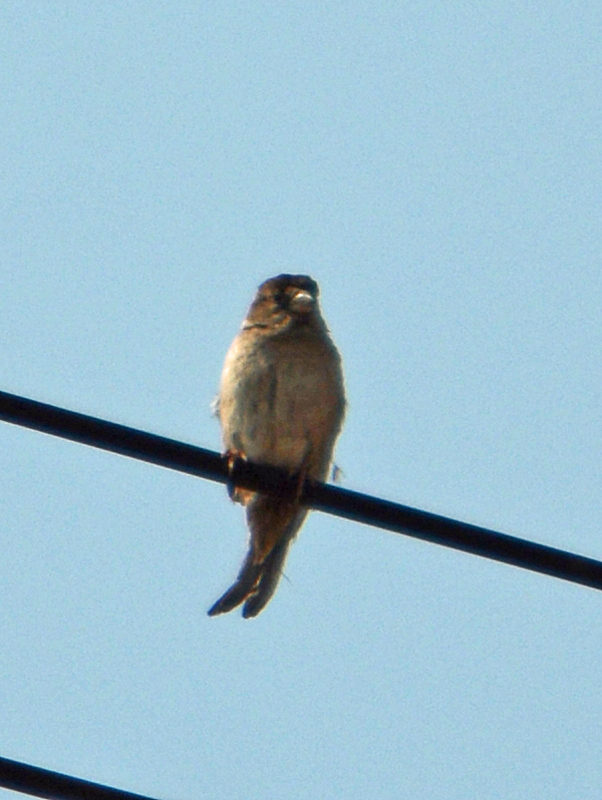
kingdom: Animalia
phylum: Chordata
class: Aves
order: Passeriformes
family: Passeridae
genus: Passer
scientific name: Passer domesticus
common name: House sparrow
